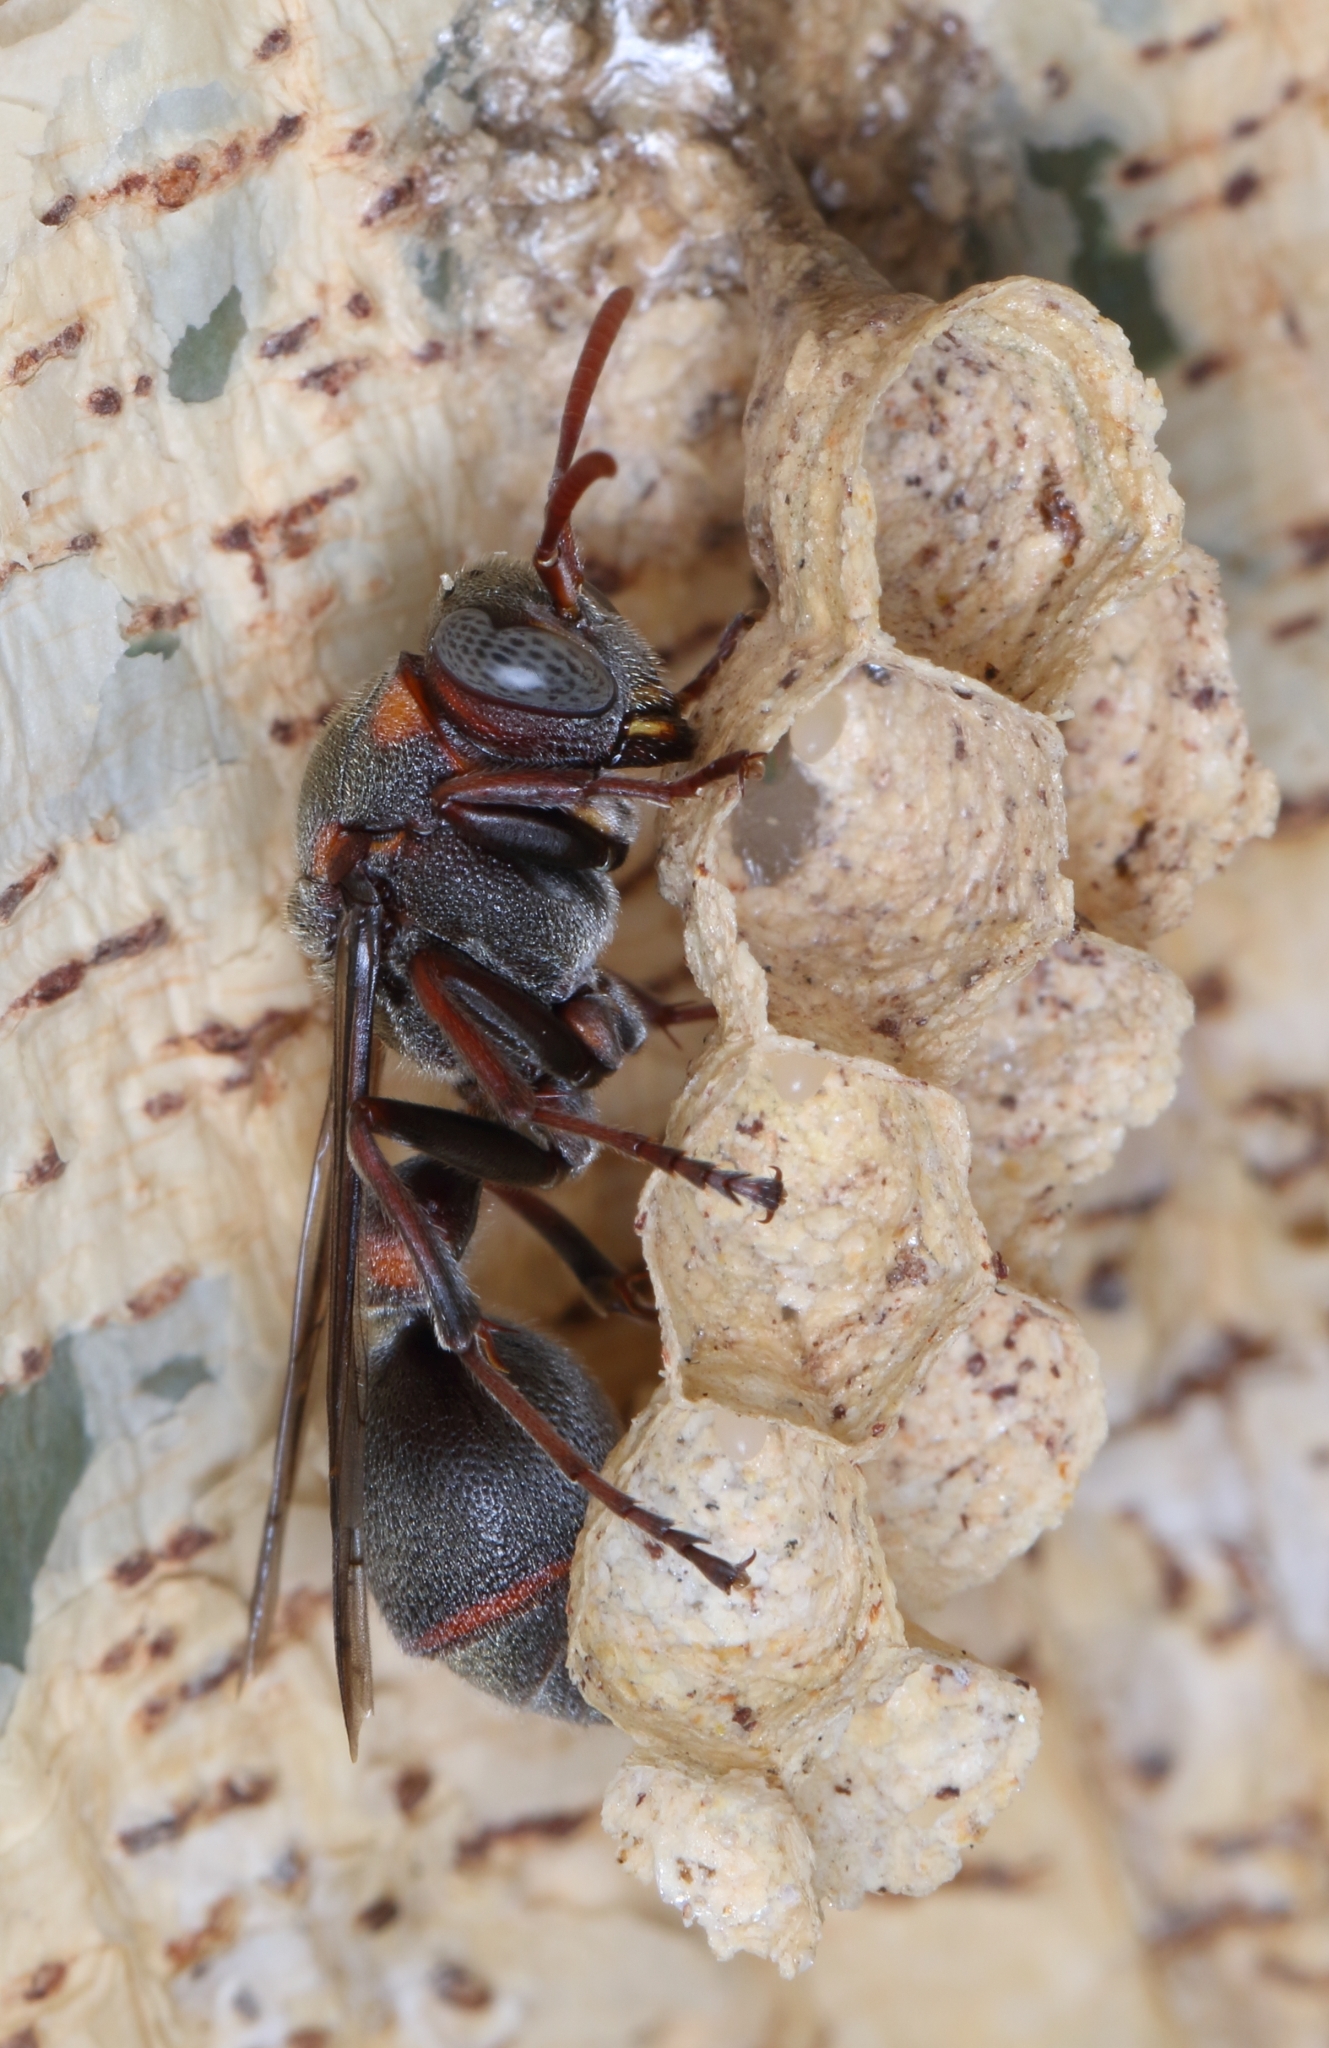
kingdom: Animalia
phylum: Arthropoda
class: Insecta
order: Hymenoptera
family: Vespidae
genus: Ropalidia
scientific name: Ropalidia nobilis
